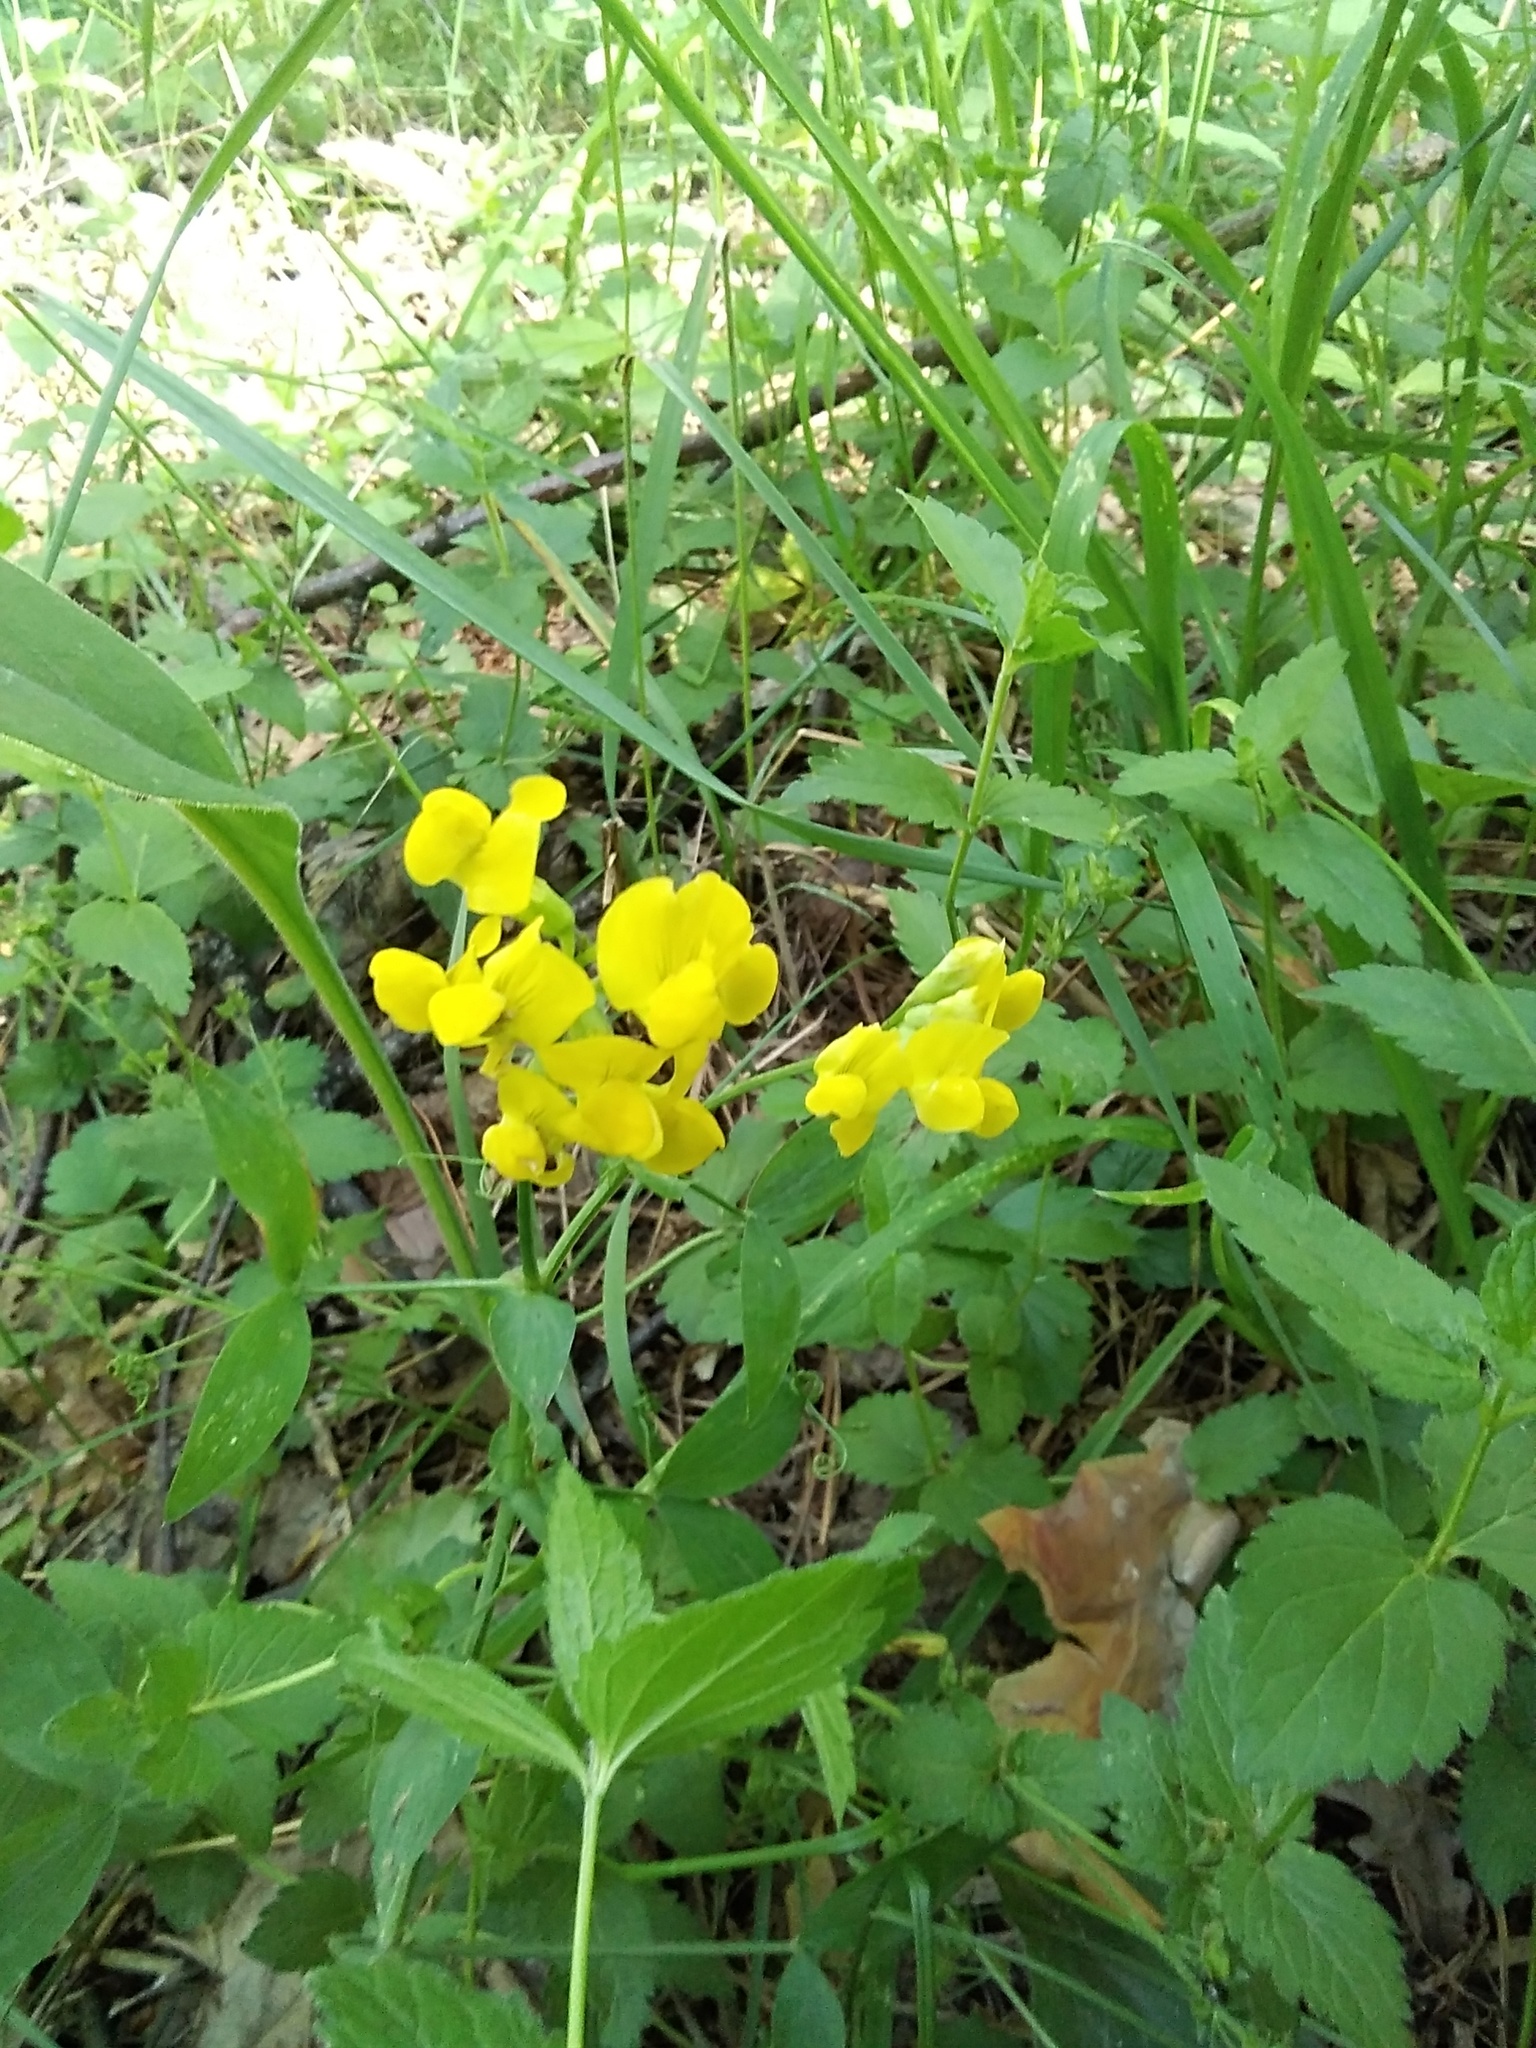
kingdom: Plantae
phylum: Tracheophyta
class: Magnoliopsida
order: Fabales
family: Fabaceae
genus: Lathyrus
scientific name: Lathyrus pratensis
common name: Meadow vetchling
